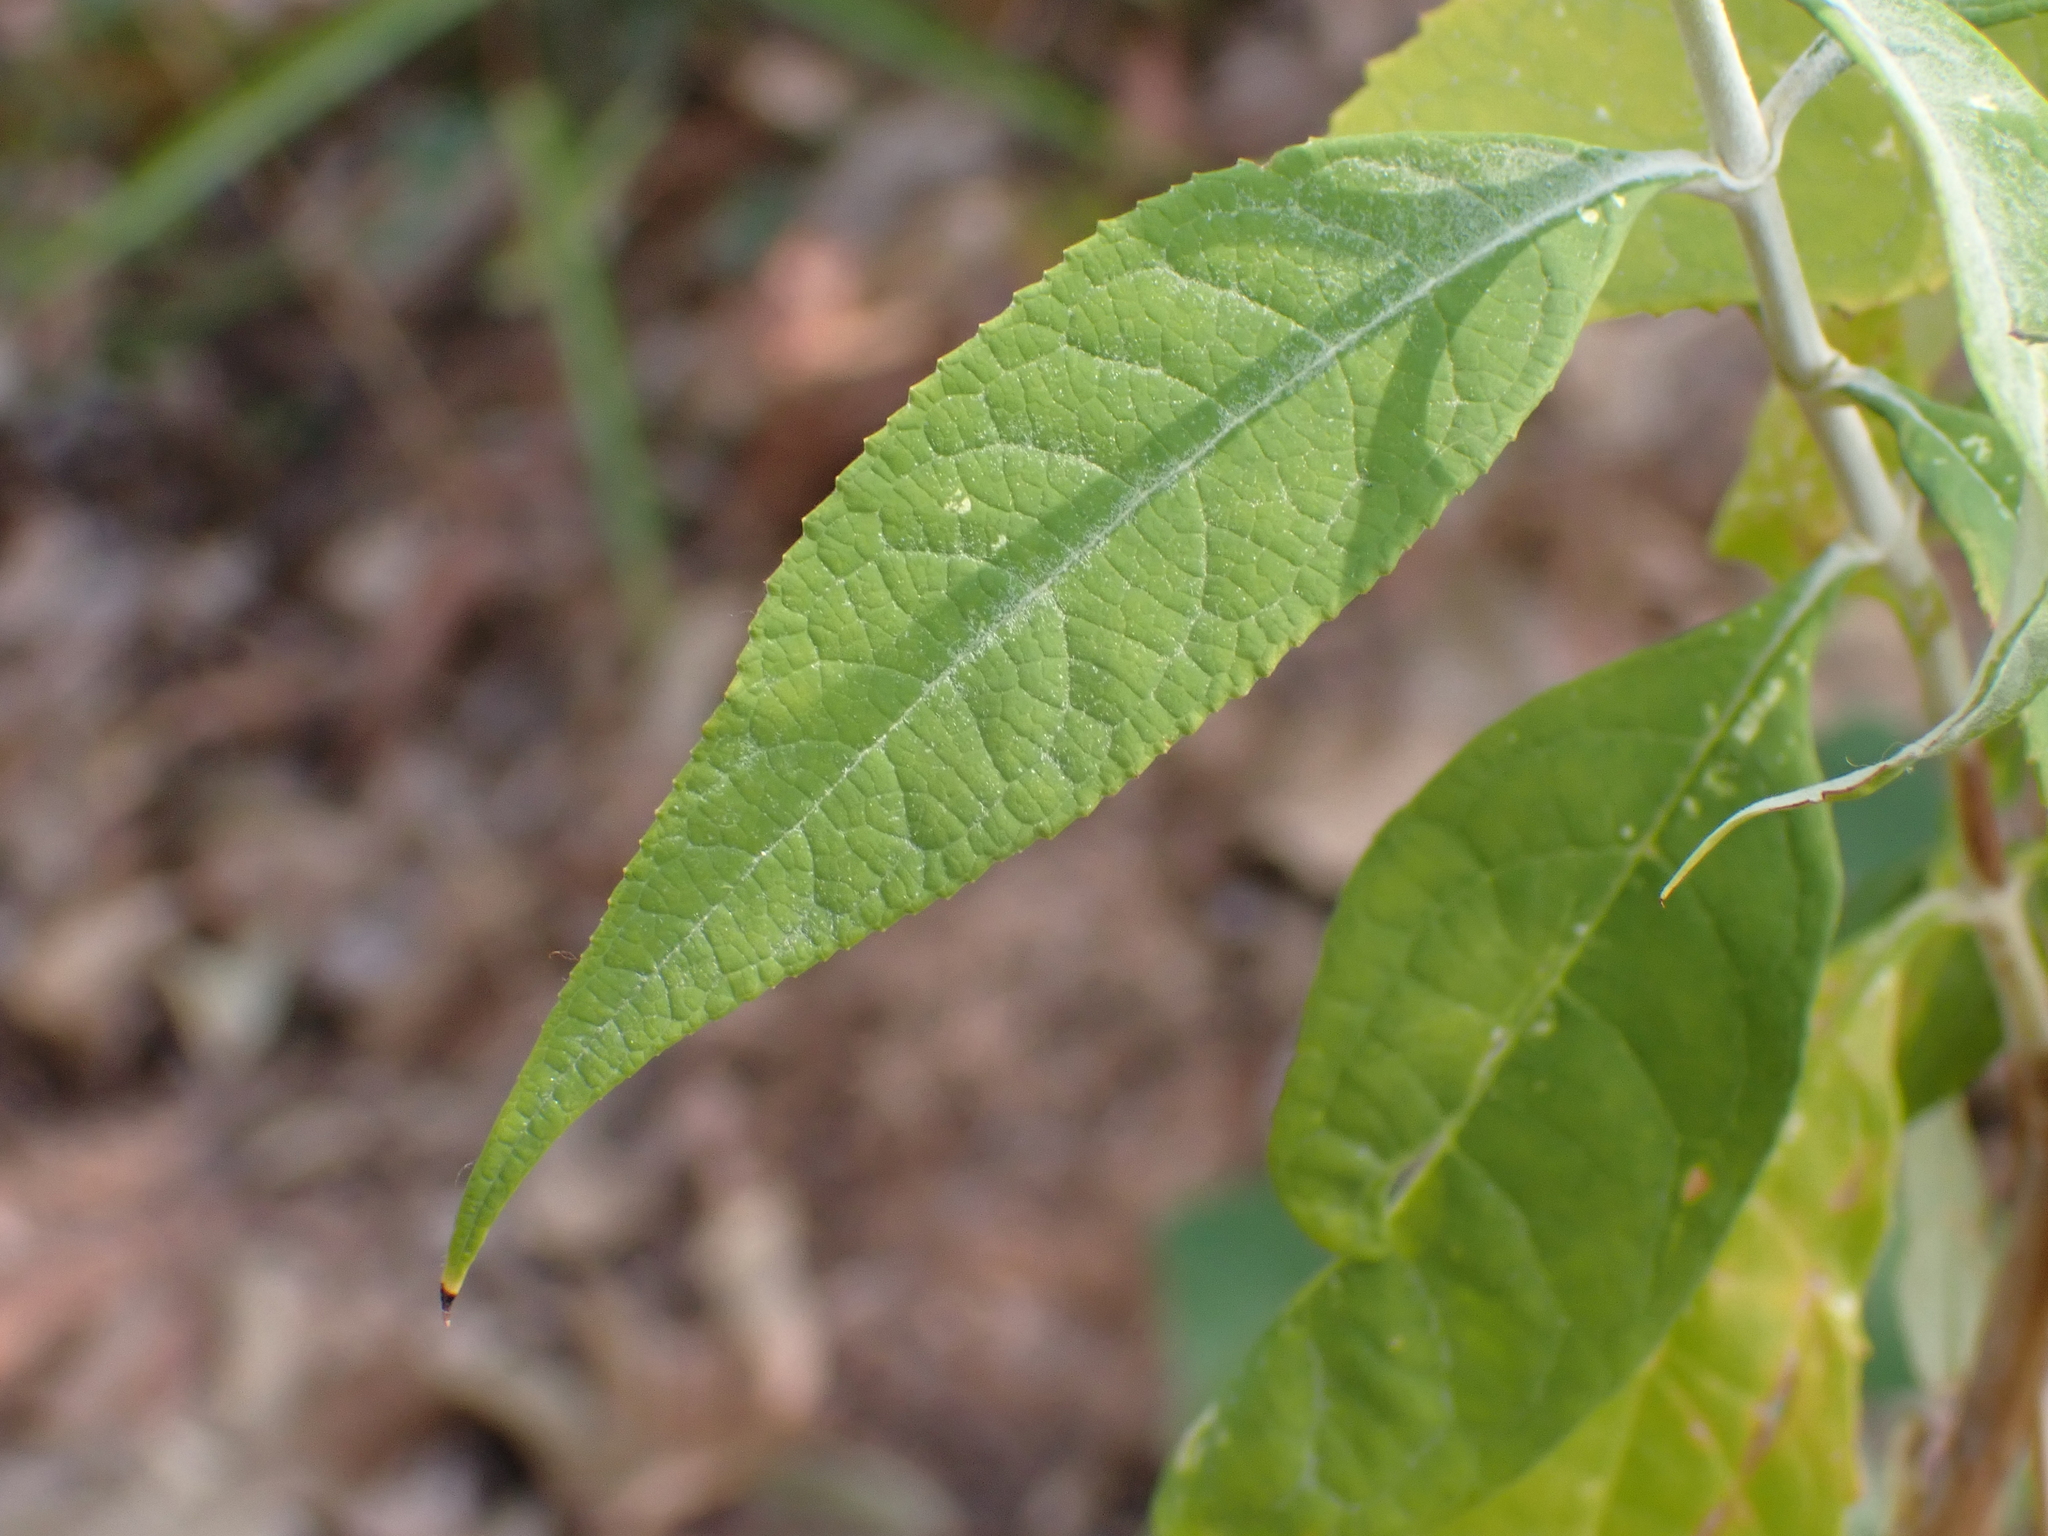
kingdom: Plantae
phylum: Tracheophyta
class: Magnoliopsida
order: Lamiales
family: Scrophulariaceae
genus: Buddleja
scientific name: Buddleja asiatica
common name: Dog tail
